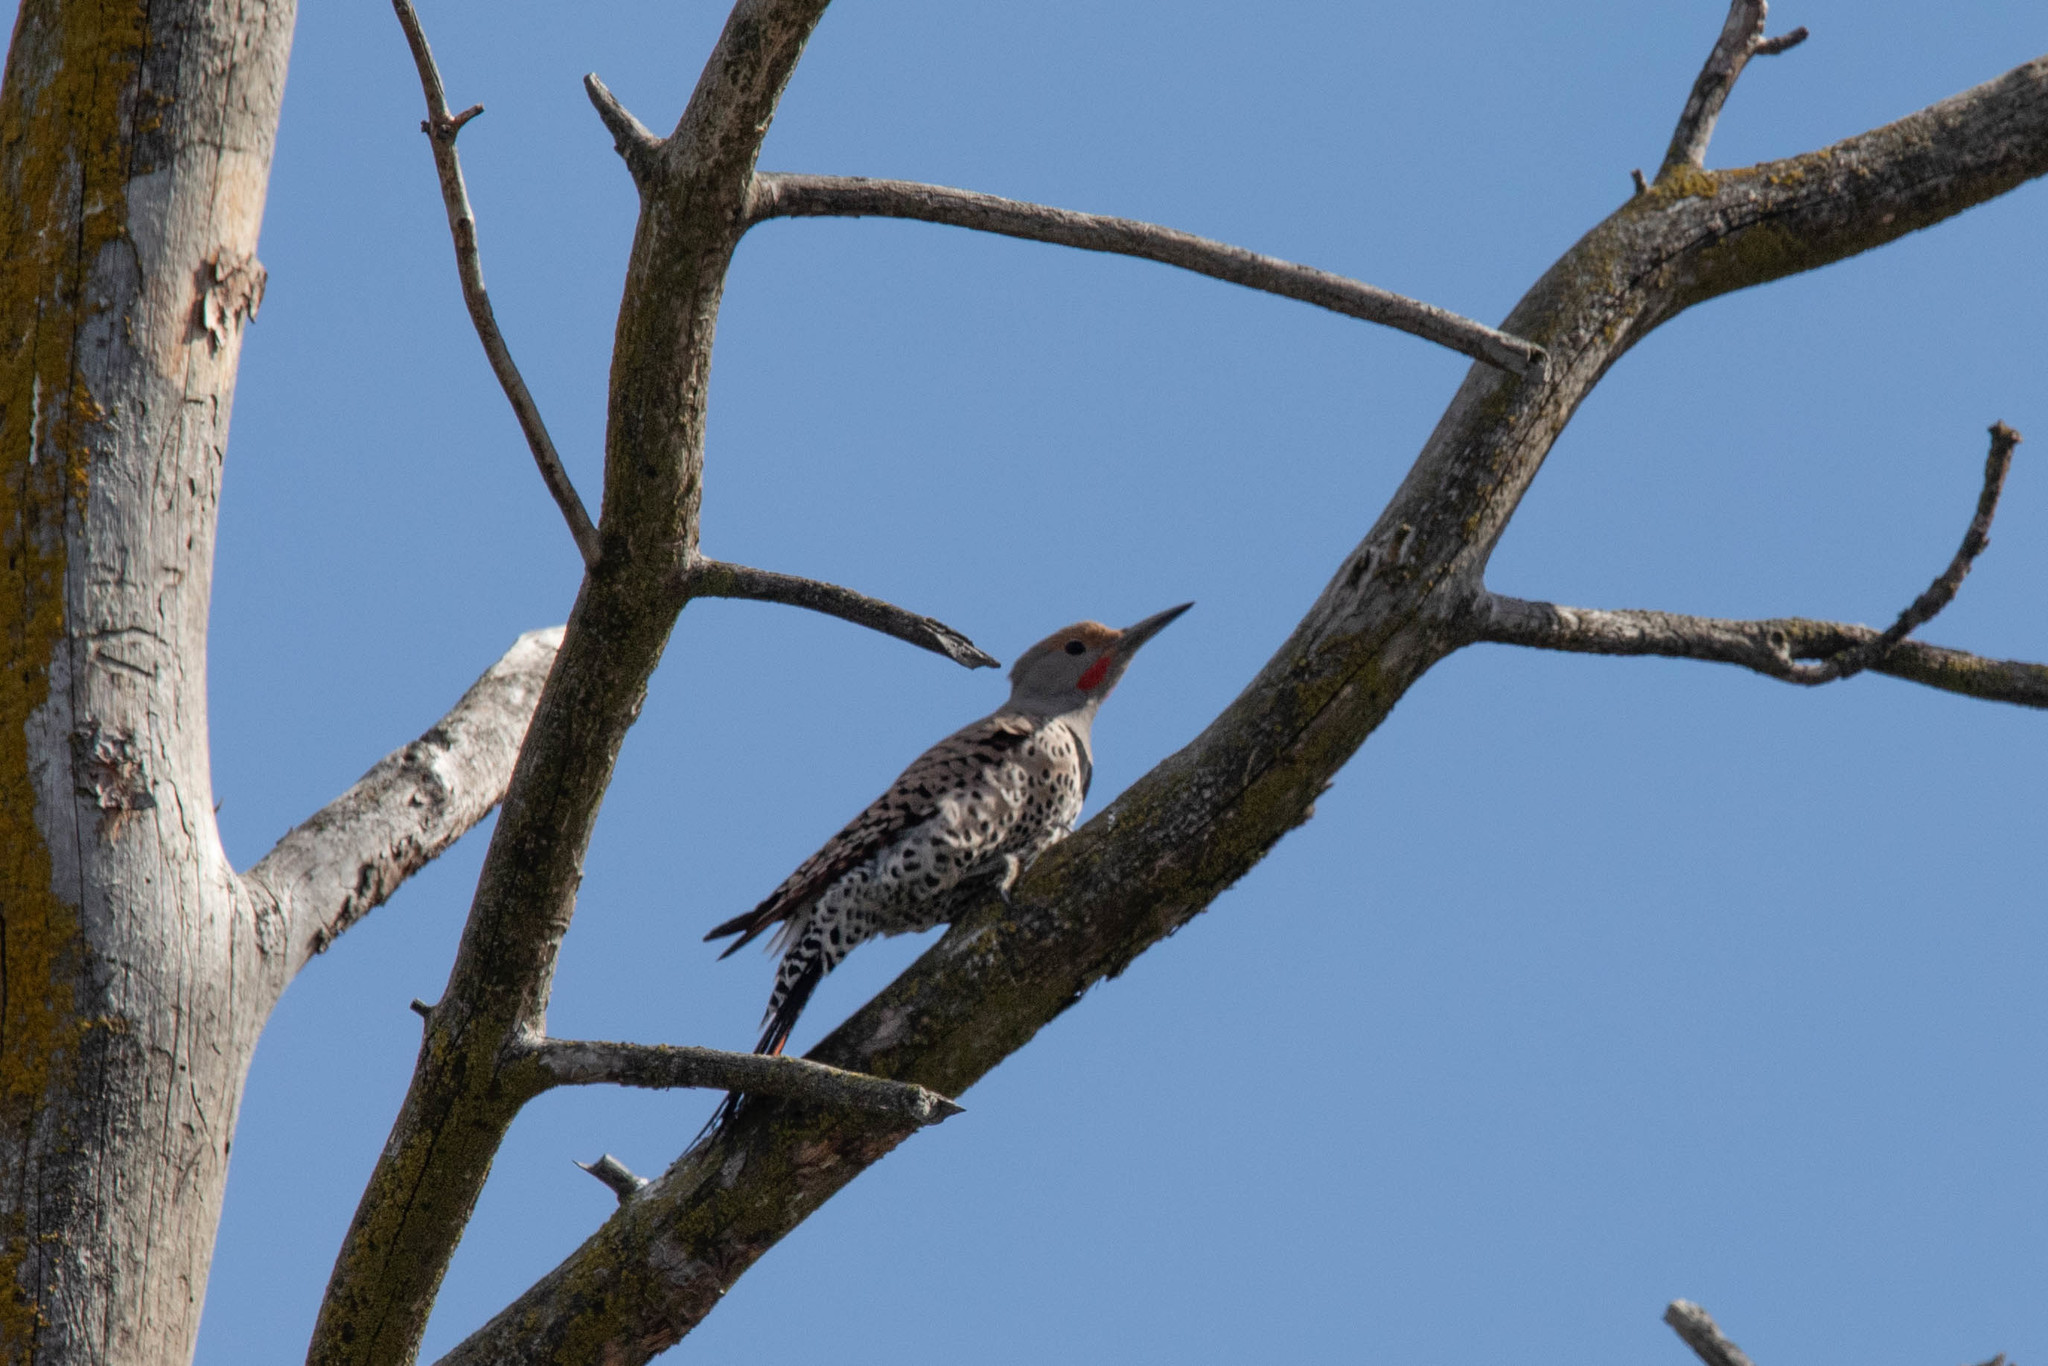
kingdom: Animalia
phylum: Chordata
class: Aves
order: Piciformes
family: Picidae
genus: Colaptes
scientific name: Colaptes auratus
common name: Northern flicker
